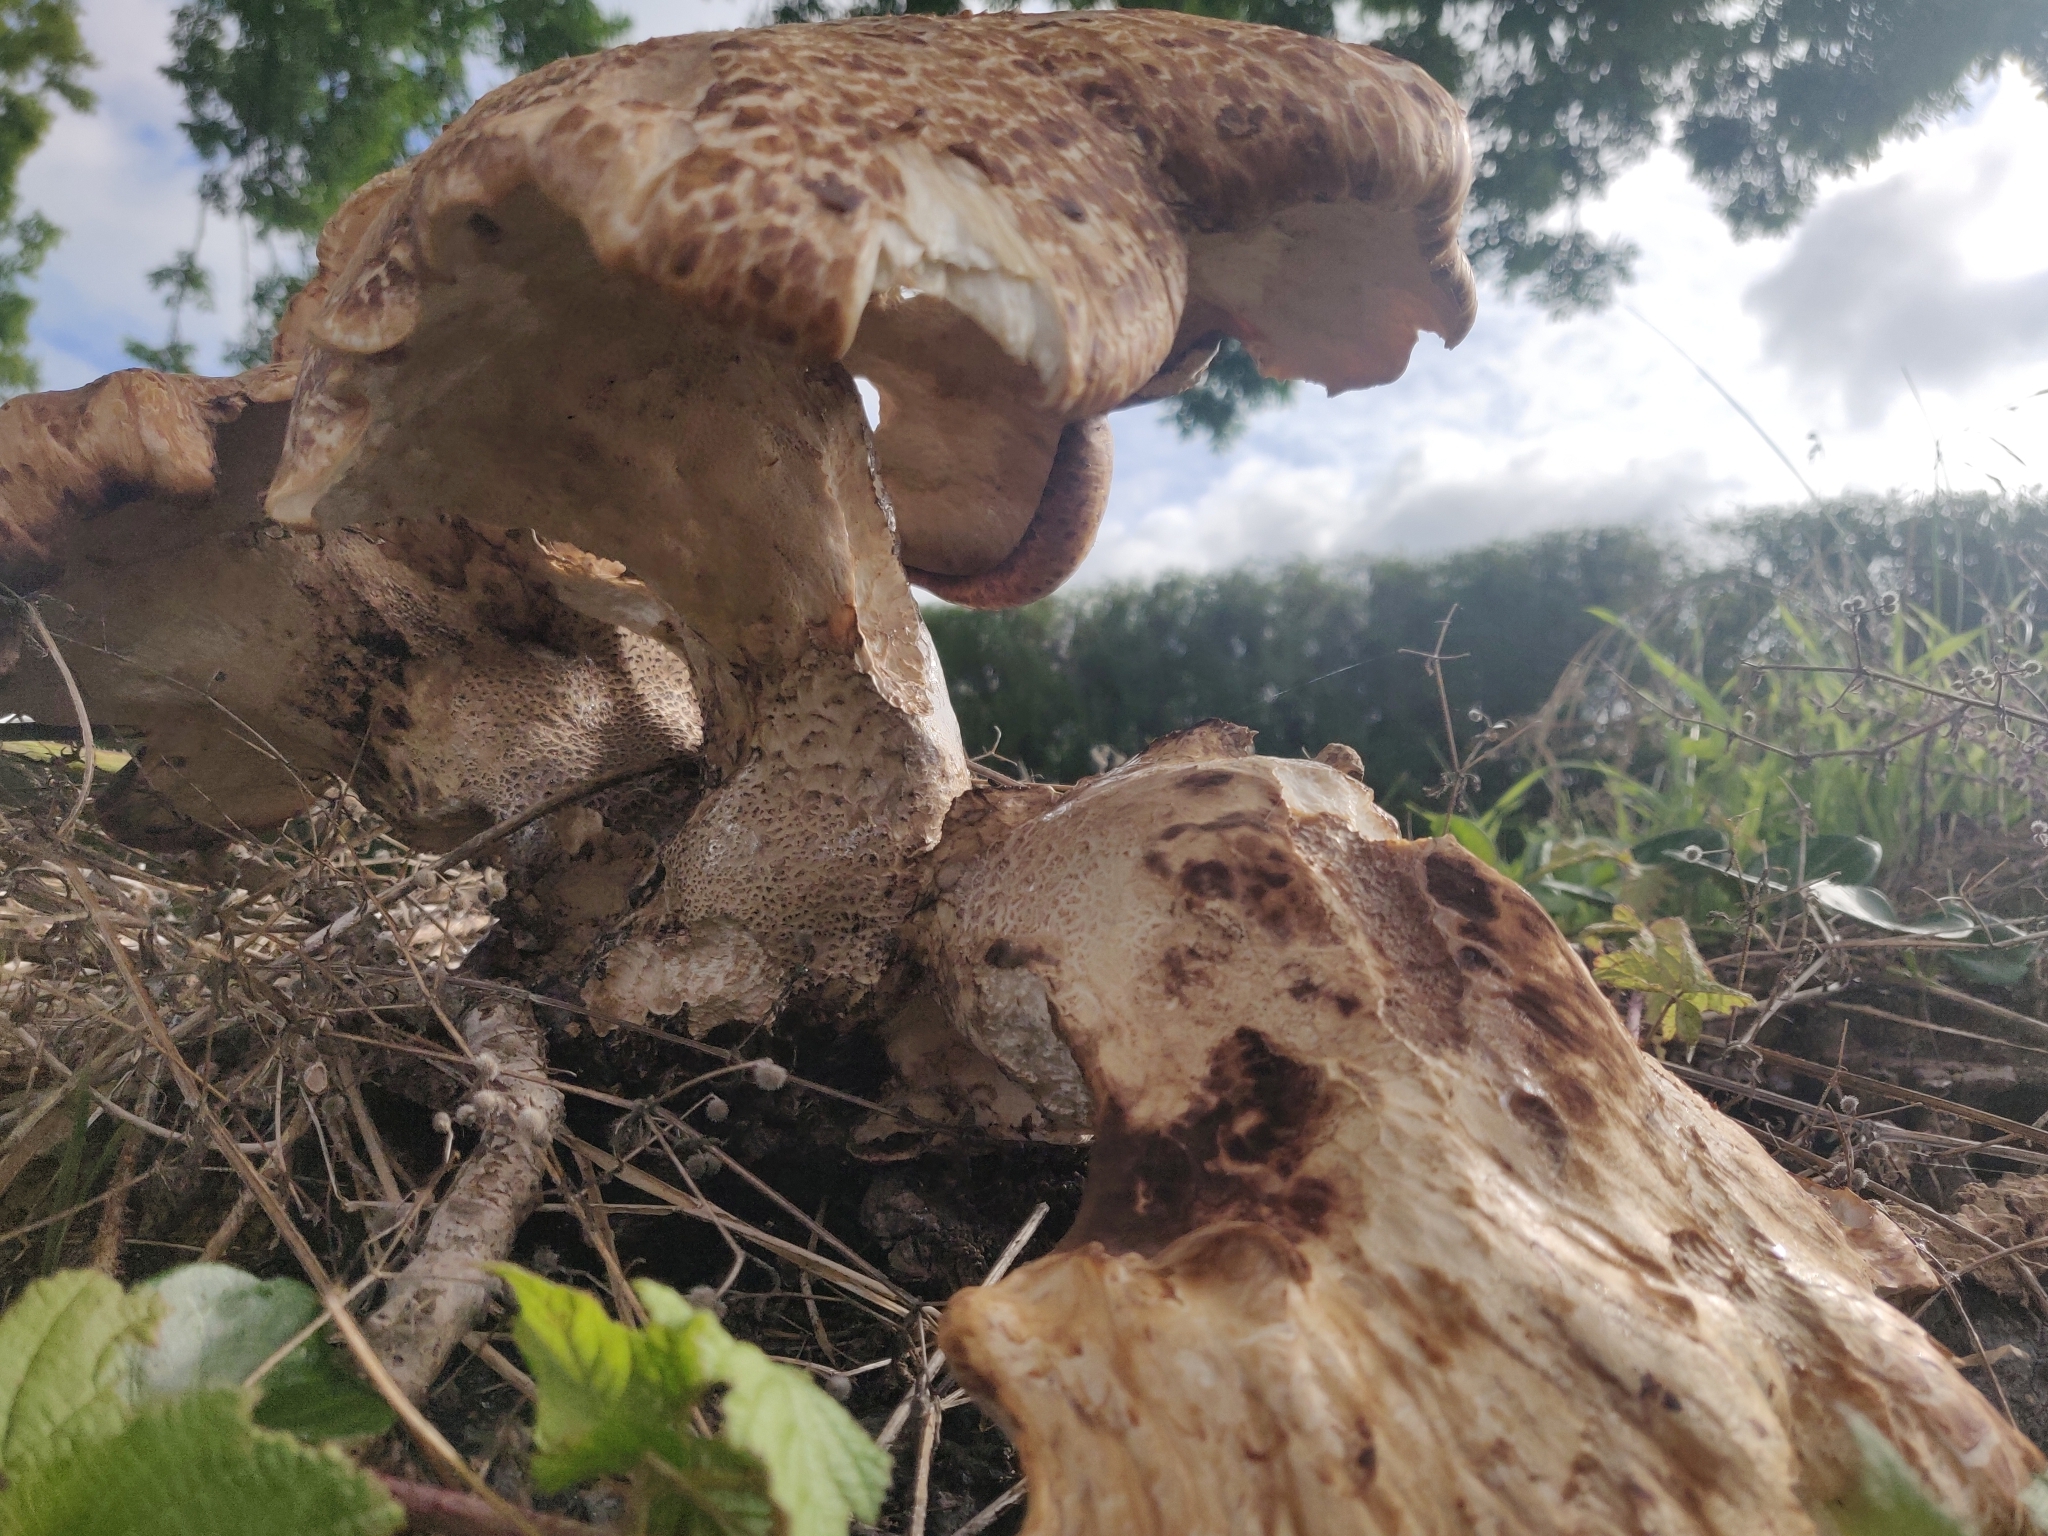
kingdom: Fungi
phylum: Basidiomycota
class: Agaricomycetes
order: Polyporales
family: Polyporaceae
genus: Cerioporus
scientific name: Cerioporus squamosus
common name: Dryad's saddle
